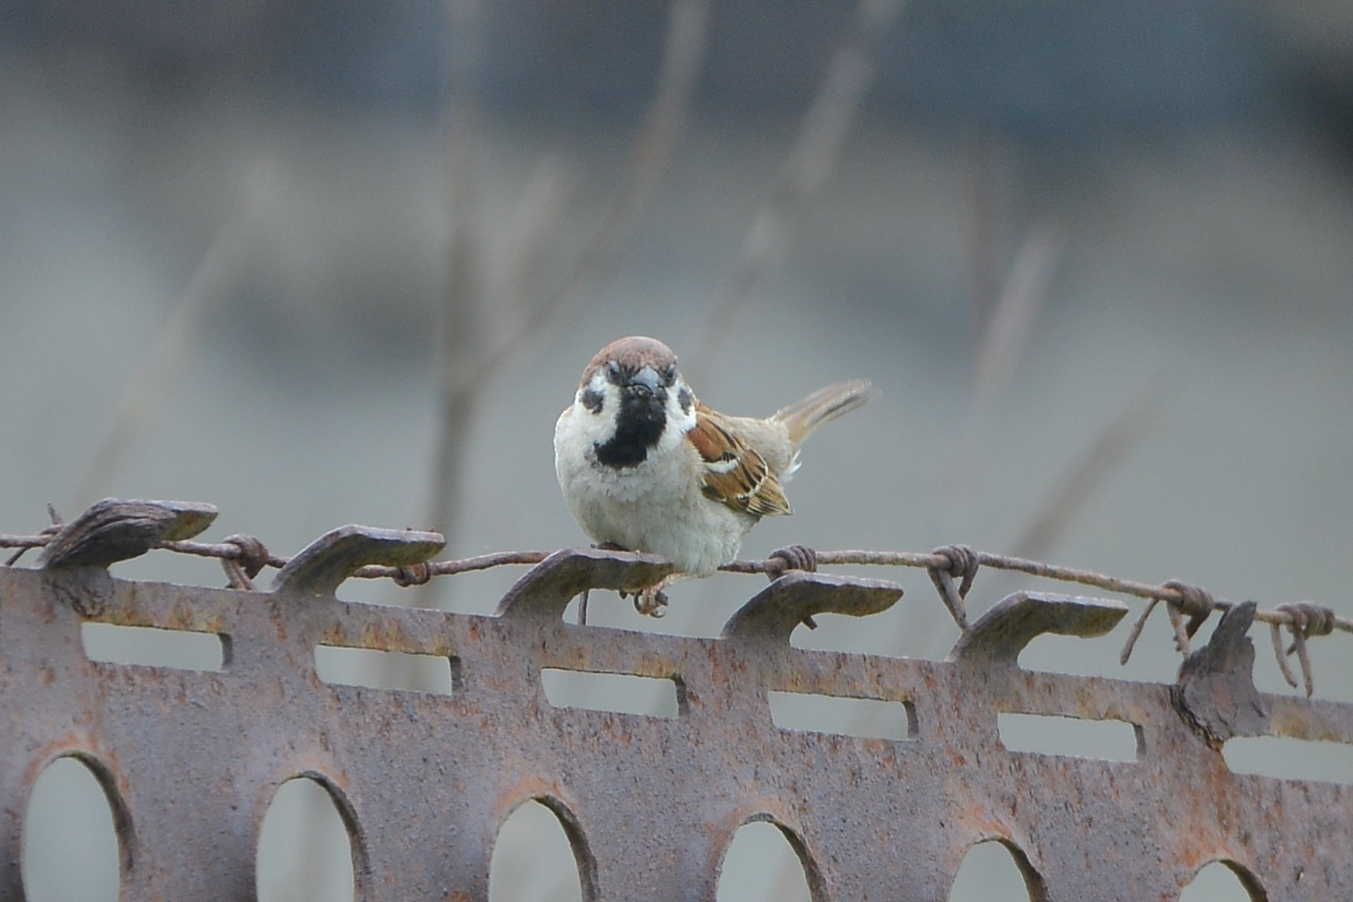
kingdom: Animalia
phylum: Chordata
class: Aves
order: Passeriformes
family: Passeridae
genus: Passer
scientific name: Passer montanus
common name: Eurasian tree sparrow
